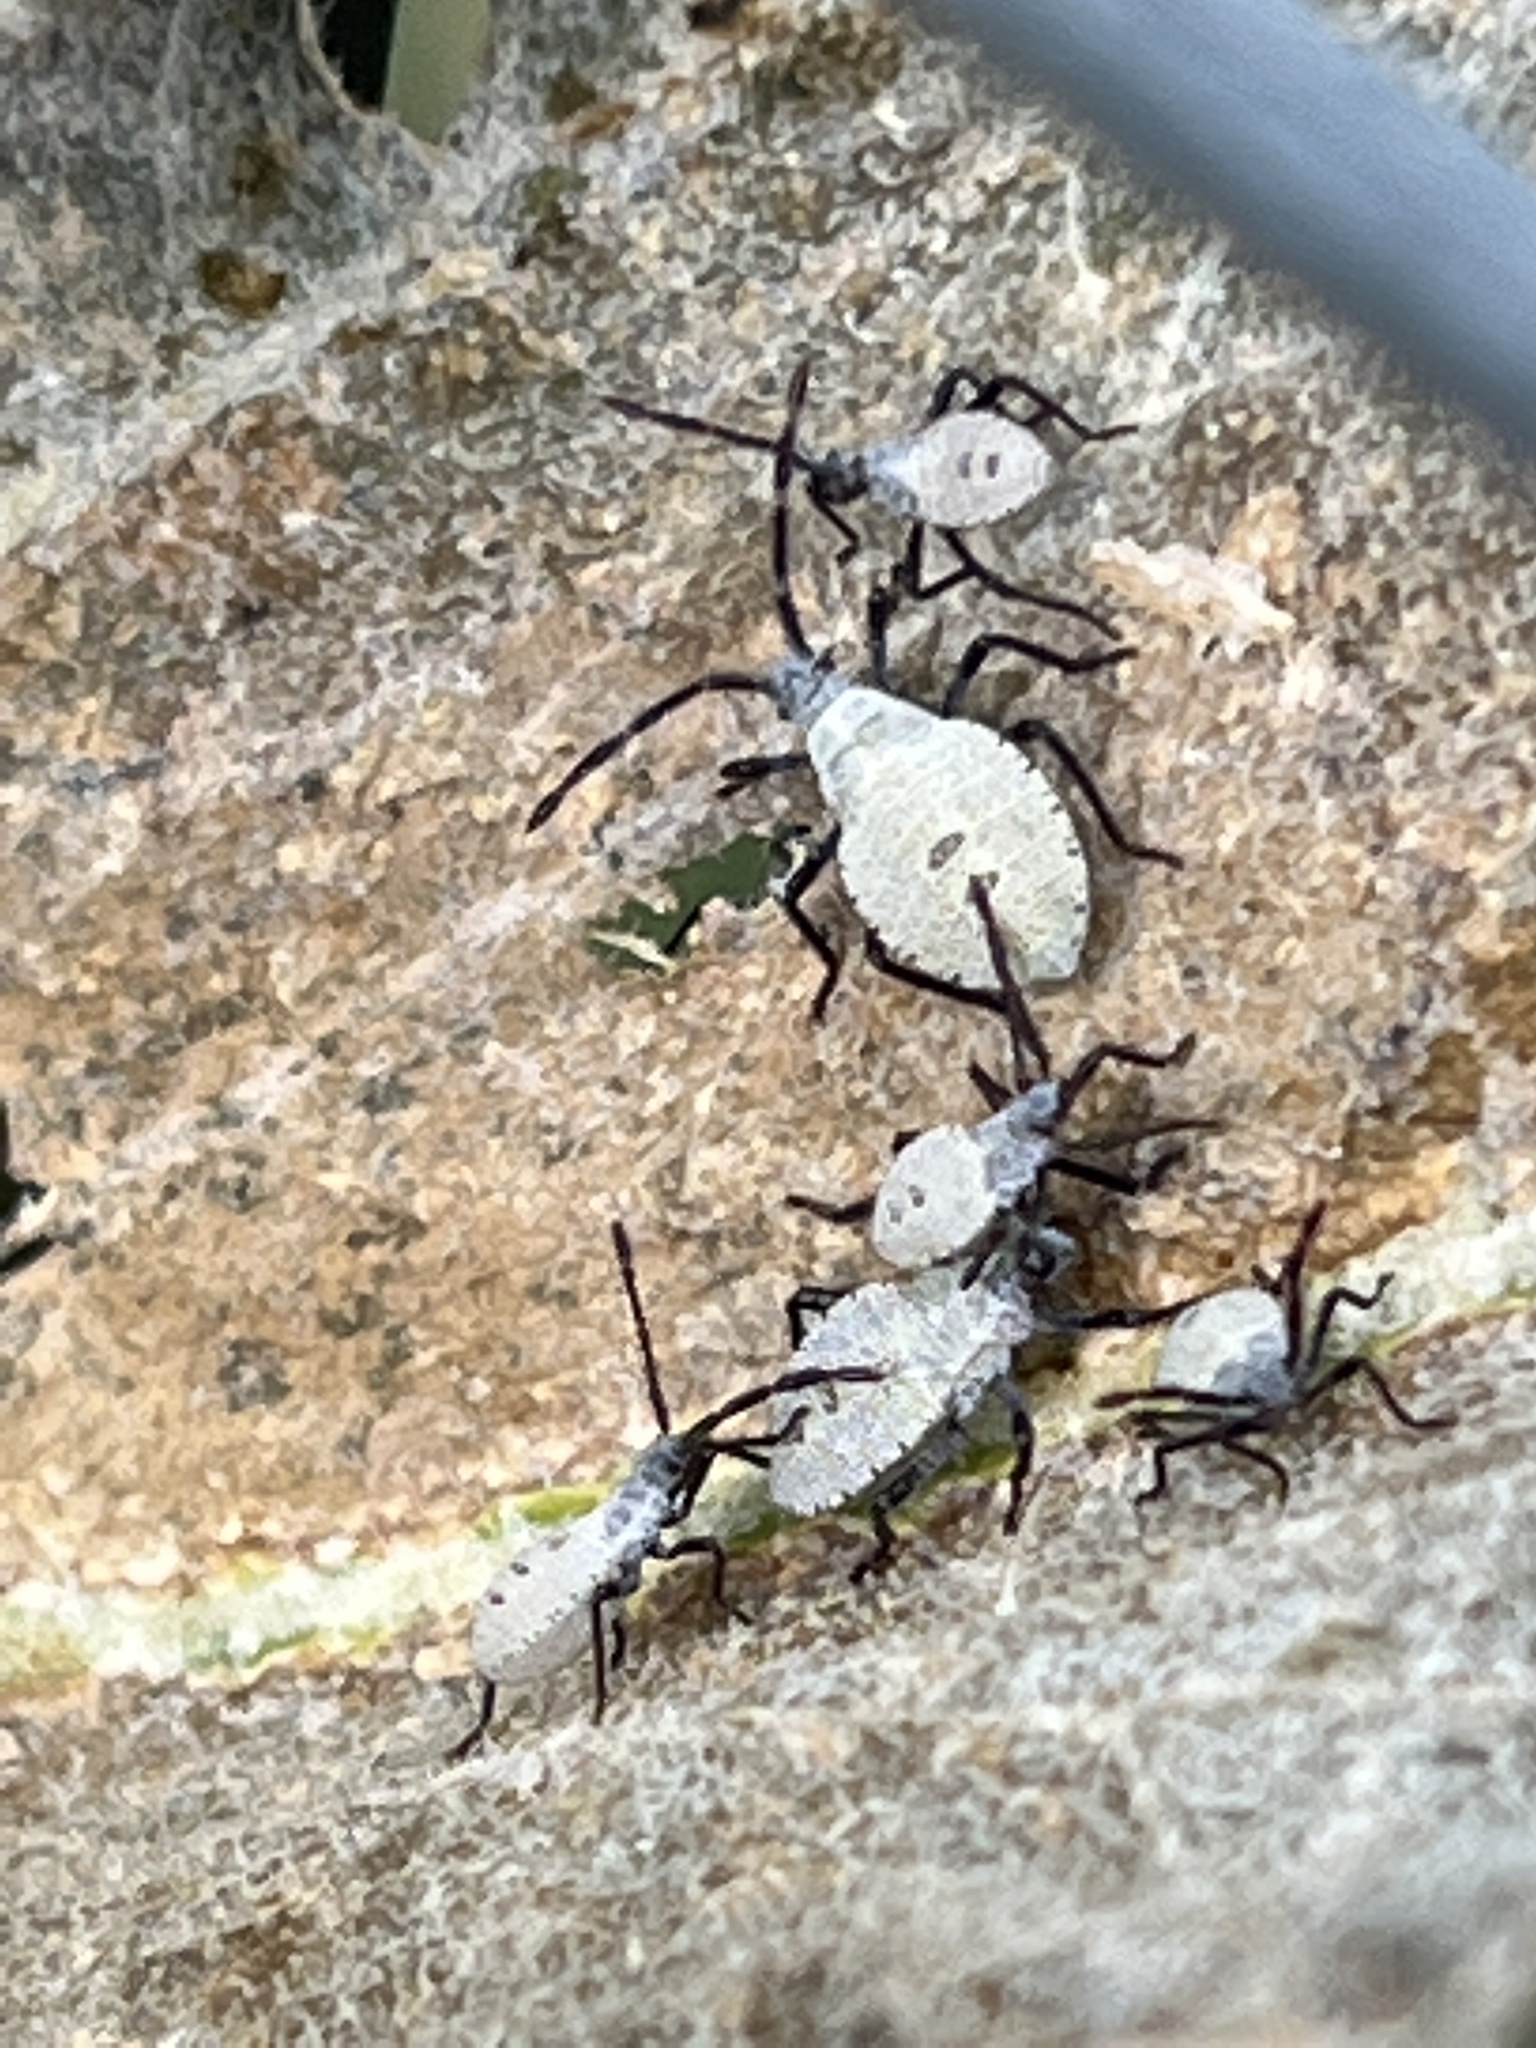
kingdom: Animalia
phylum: Arthropoda
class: Insecta
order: Hemiptera
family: Coreidae
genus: Anasa
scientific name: Anasa tristis
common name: Squash bug
